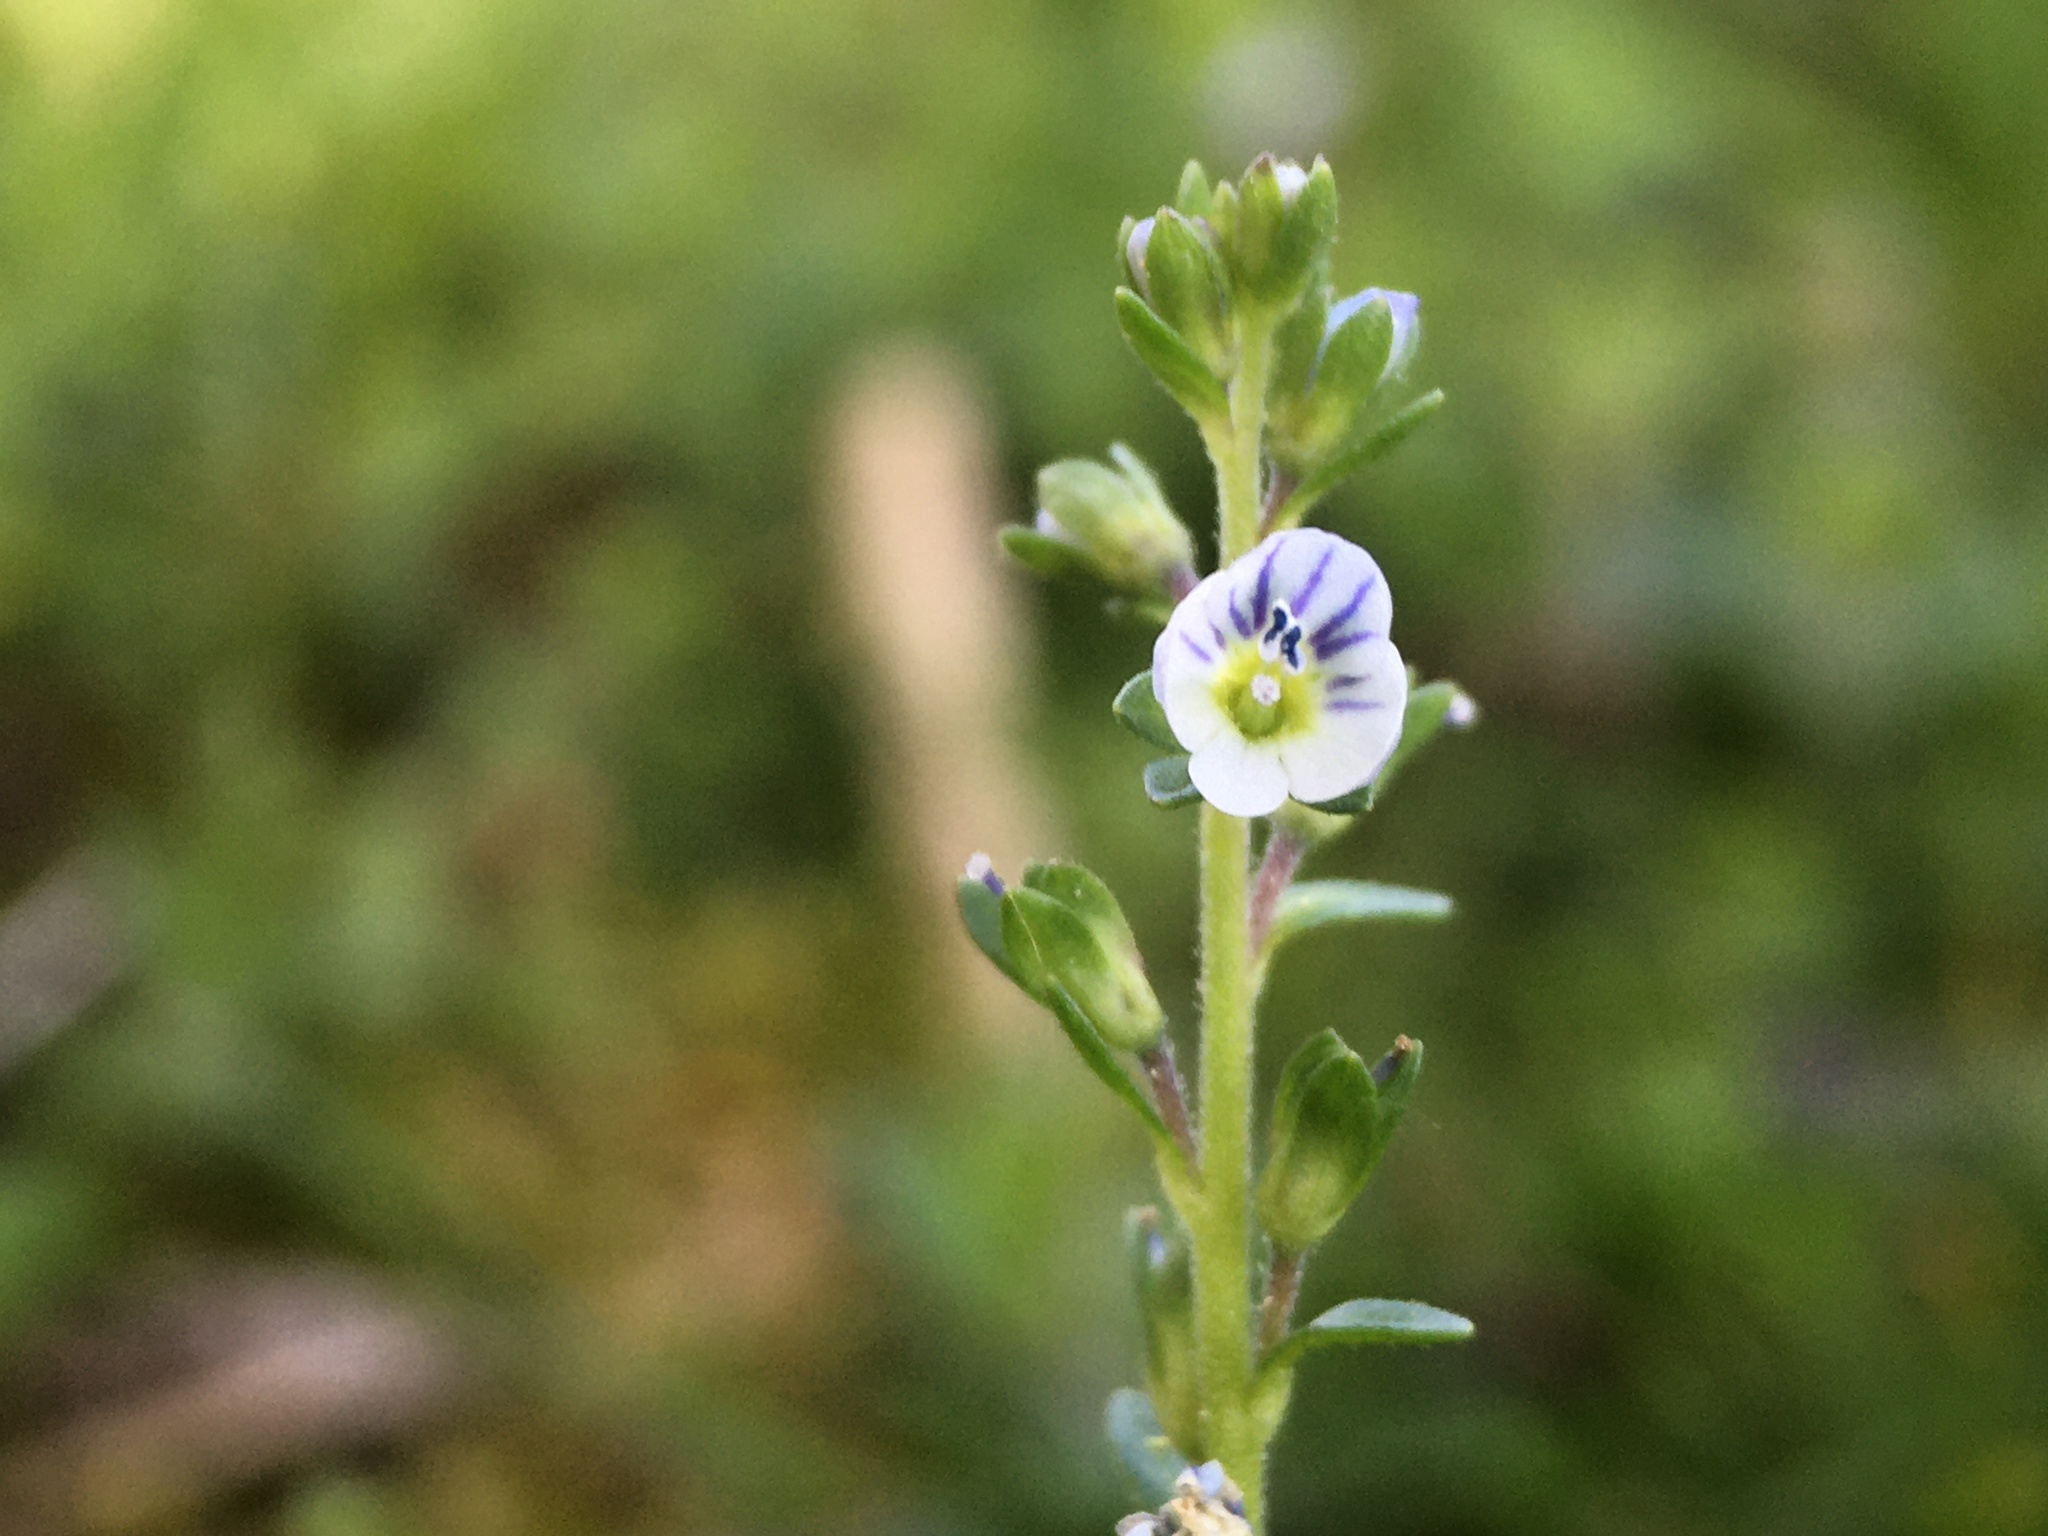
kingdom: Plantae
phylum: Tracheophyta
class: Magnoliopsida
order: Lamiales
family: Plantaginaceae
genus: Veronica
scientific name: Veronica serpyllifolia
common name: Thyme-leaved speedwell
